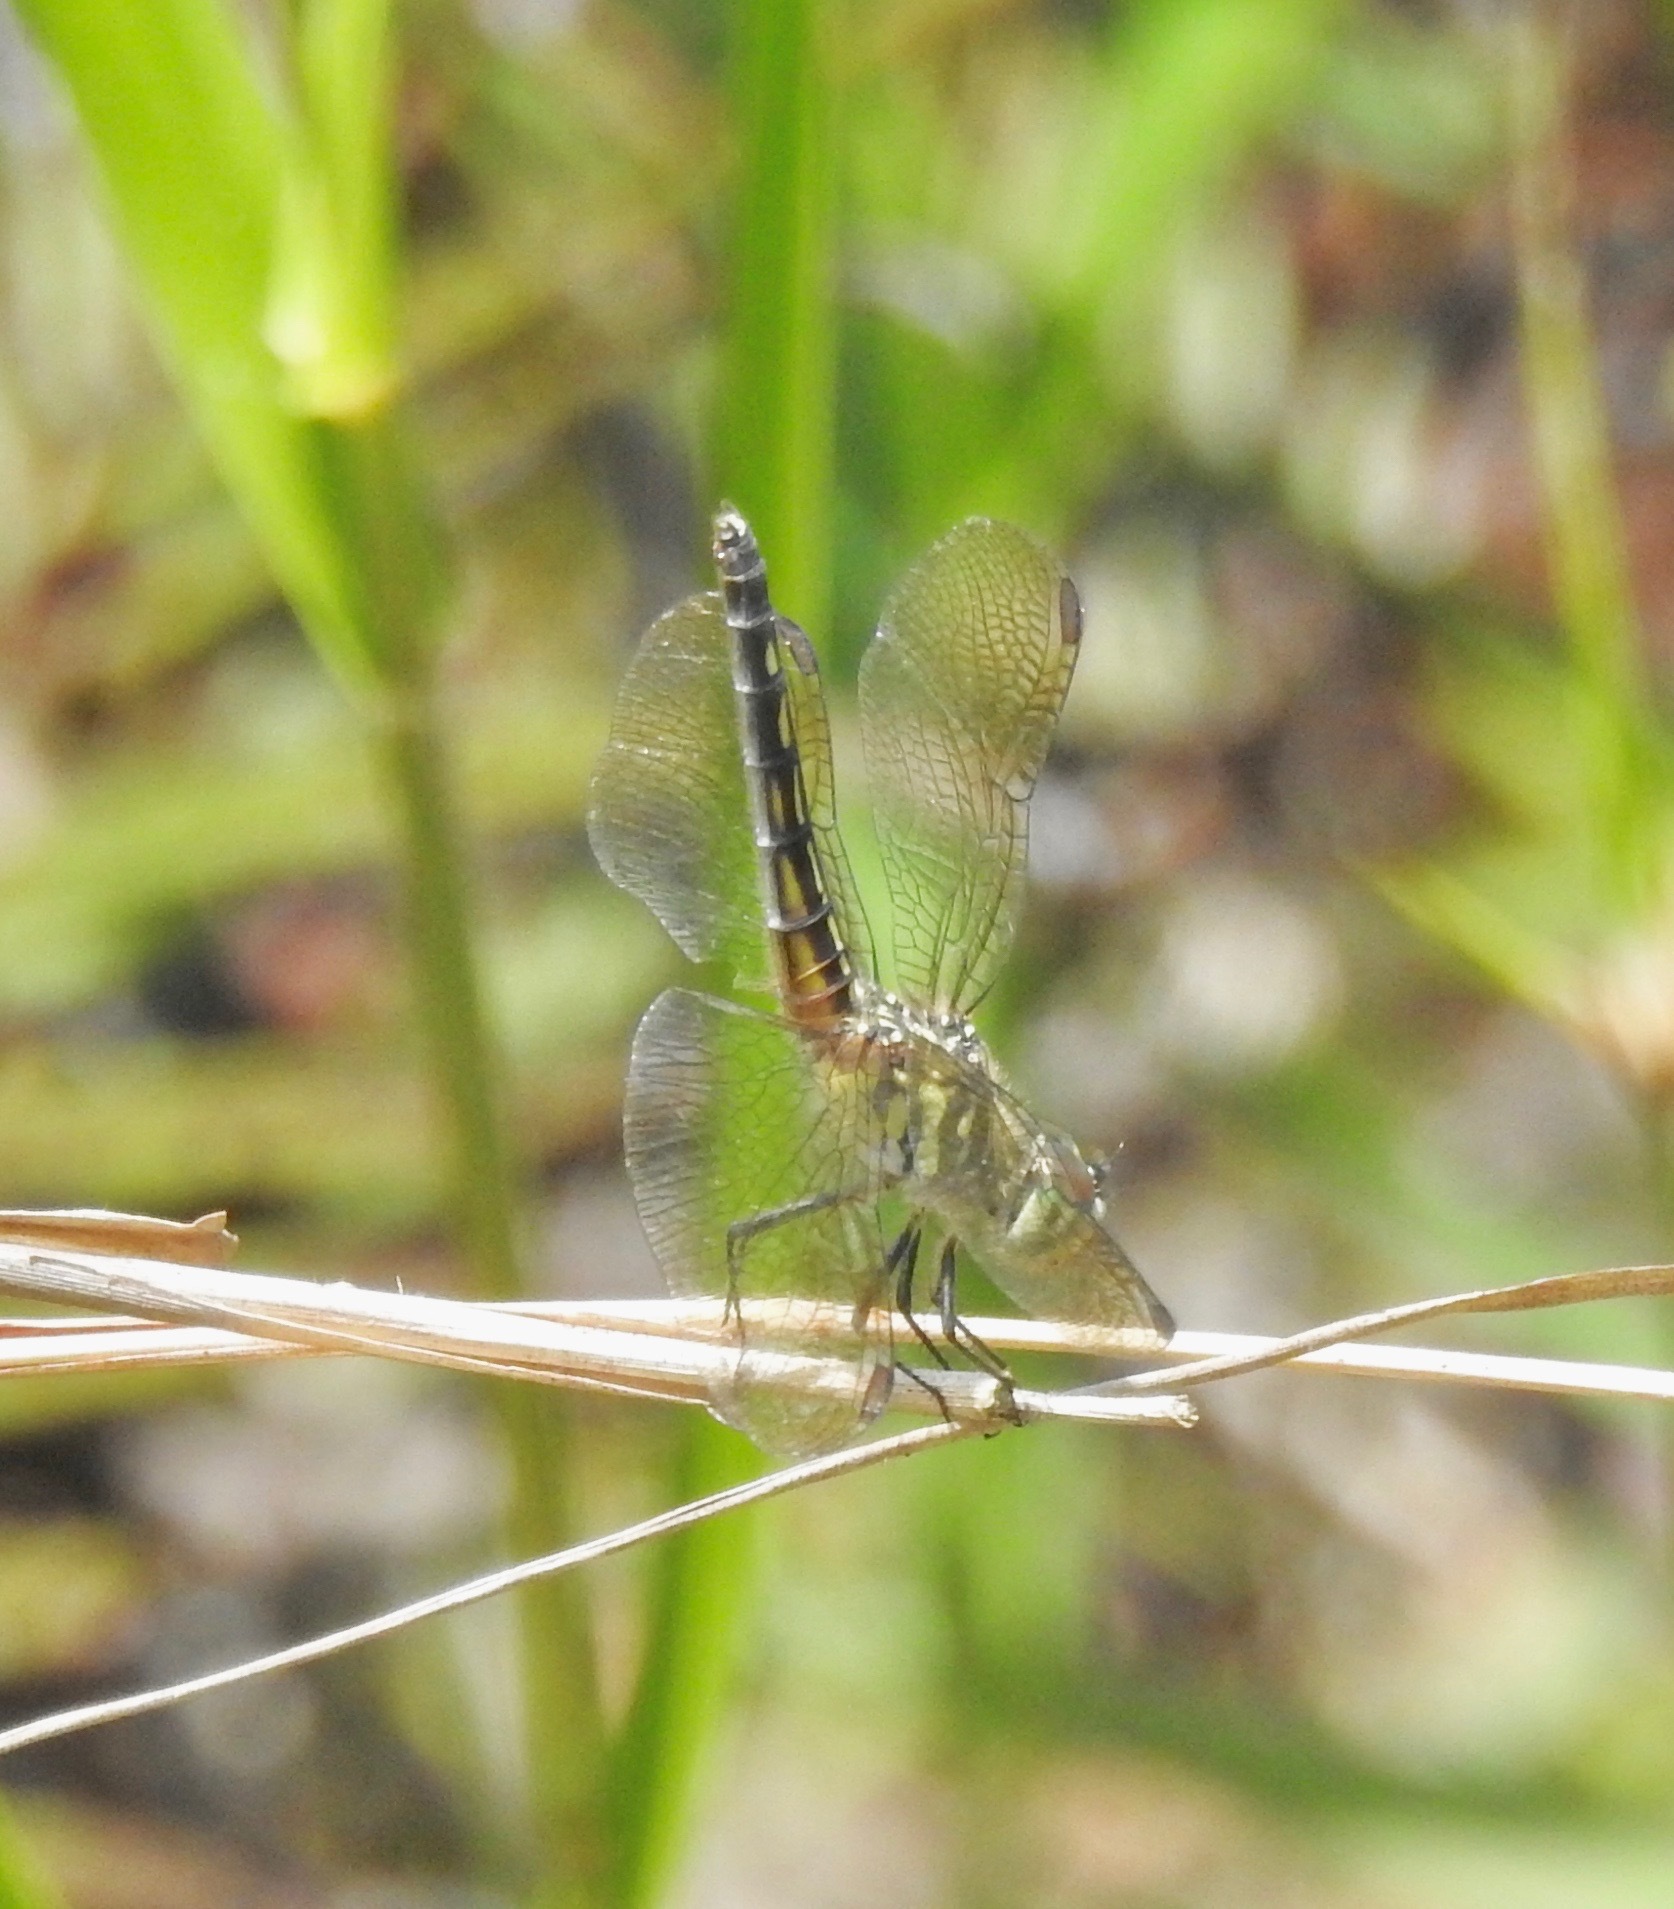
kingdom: Animalia
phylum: Arthropoda
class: Insecta
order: Odonata
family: Libellulidae
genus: Pachydiplax
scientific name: Pachydiplax longipennis
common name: Blue dasher
